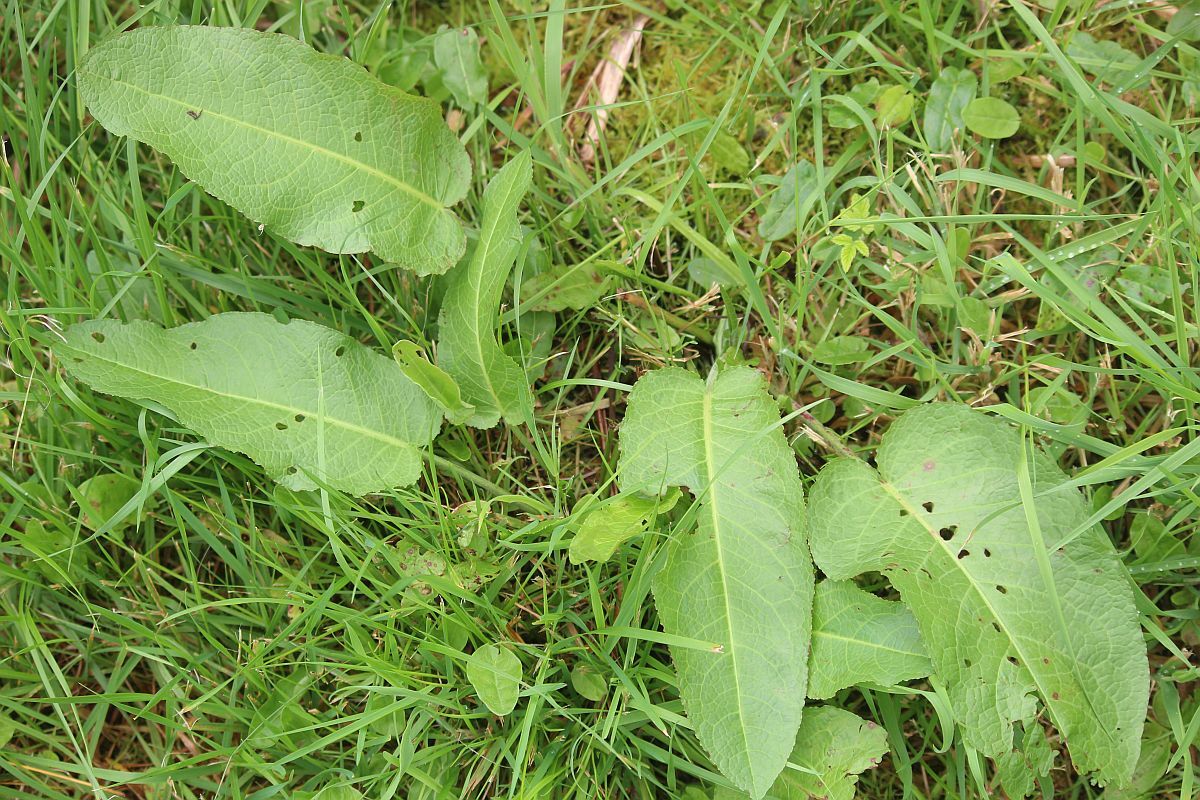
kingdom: Plantae
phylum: Tracheophyta
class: Magnoliopsida
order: Caryophyllales
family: Polygonaceae
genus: Rumex
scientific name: Rumex obtusifolius
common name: Bitter dock
